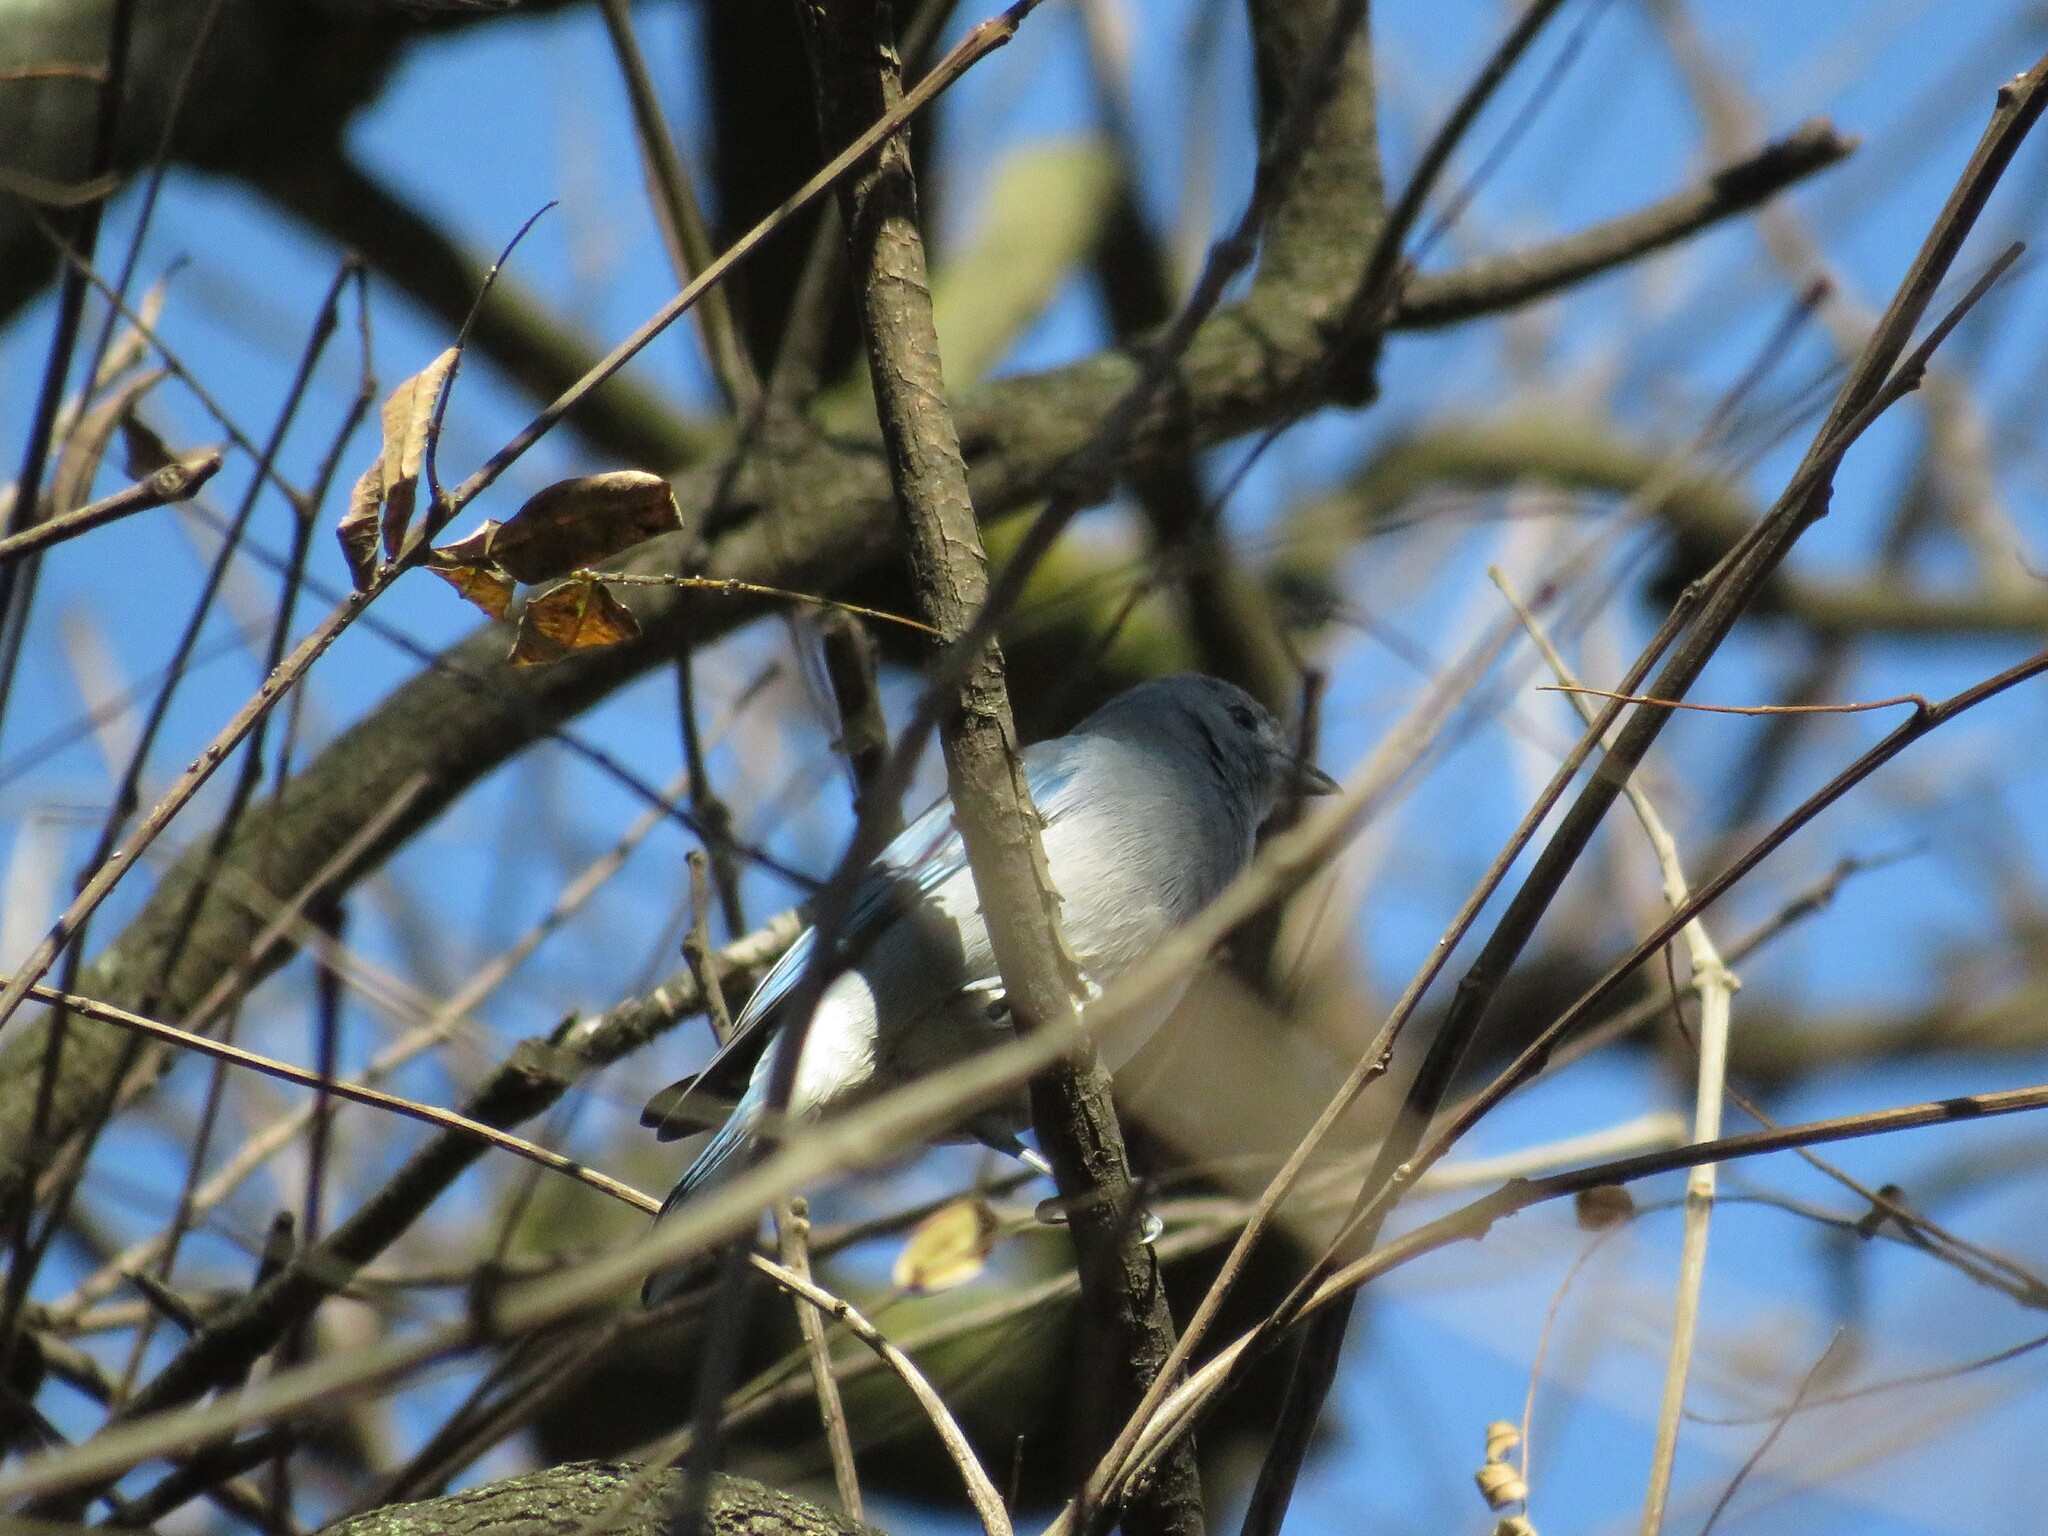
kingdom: Animalia
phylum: Chordata
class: Aves
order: Passeriformes
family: Thraupidae
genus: Thraupis
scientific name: Thraupis sayaca
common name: Sayaca tanager
